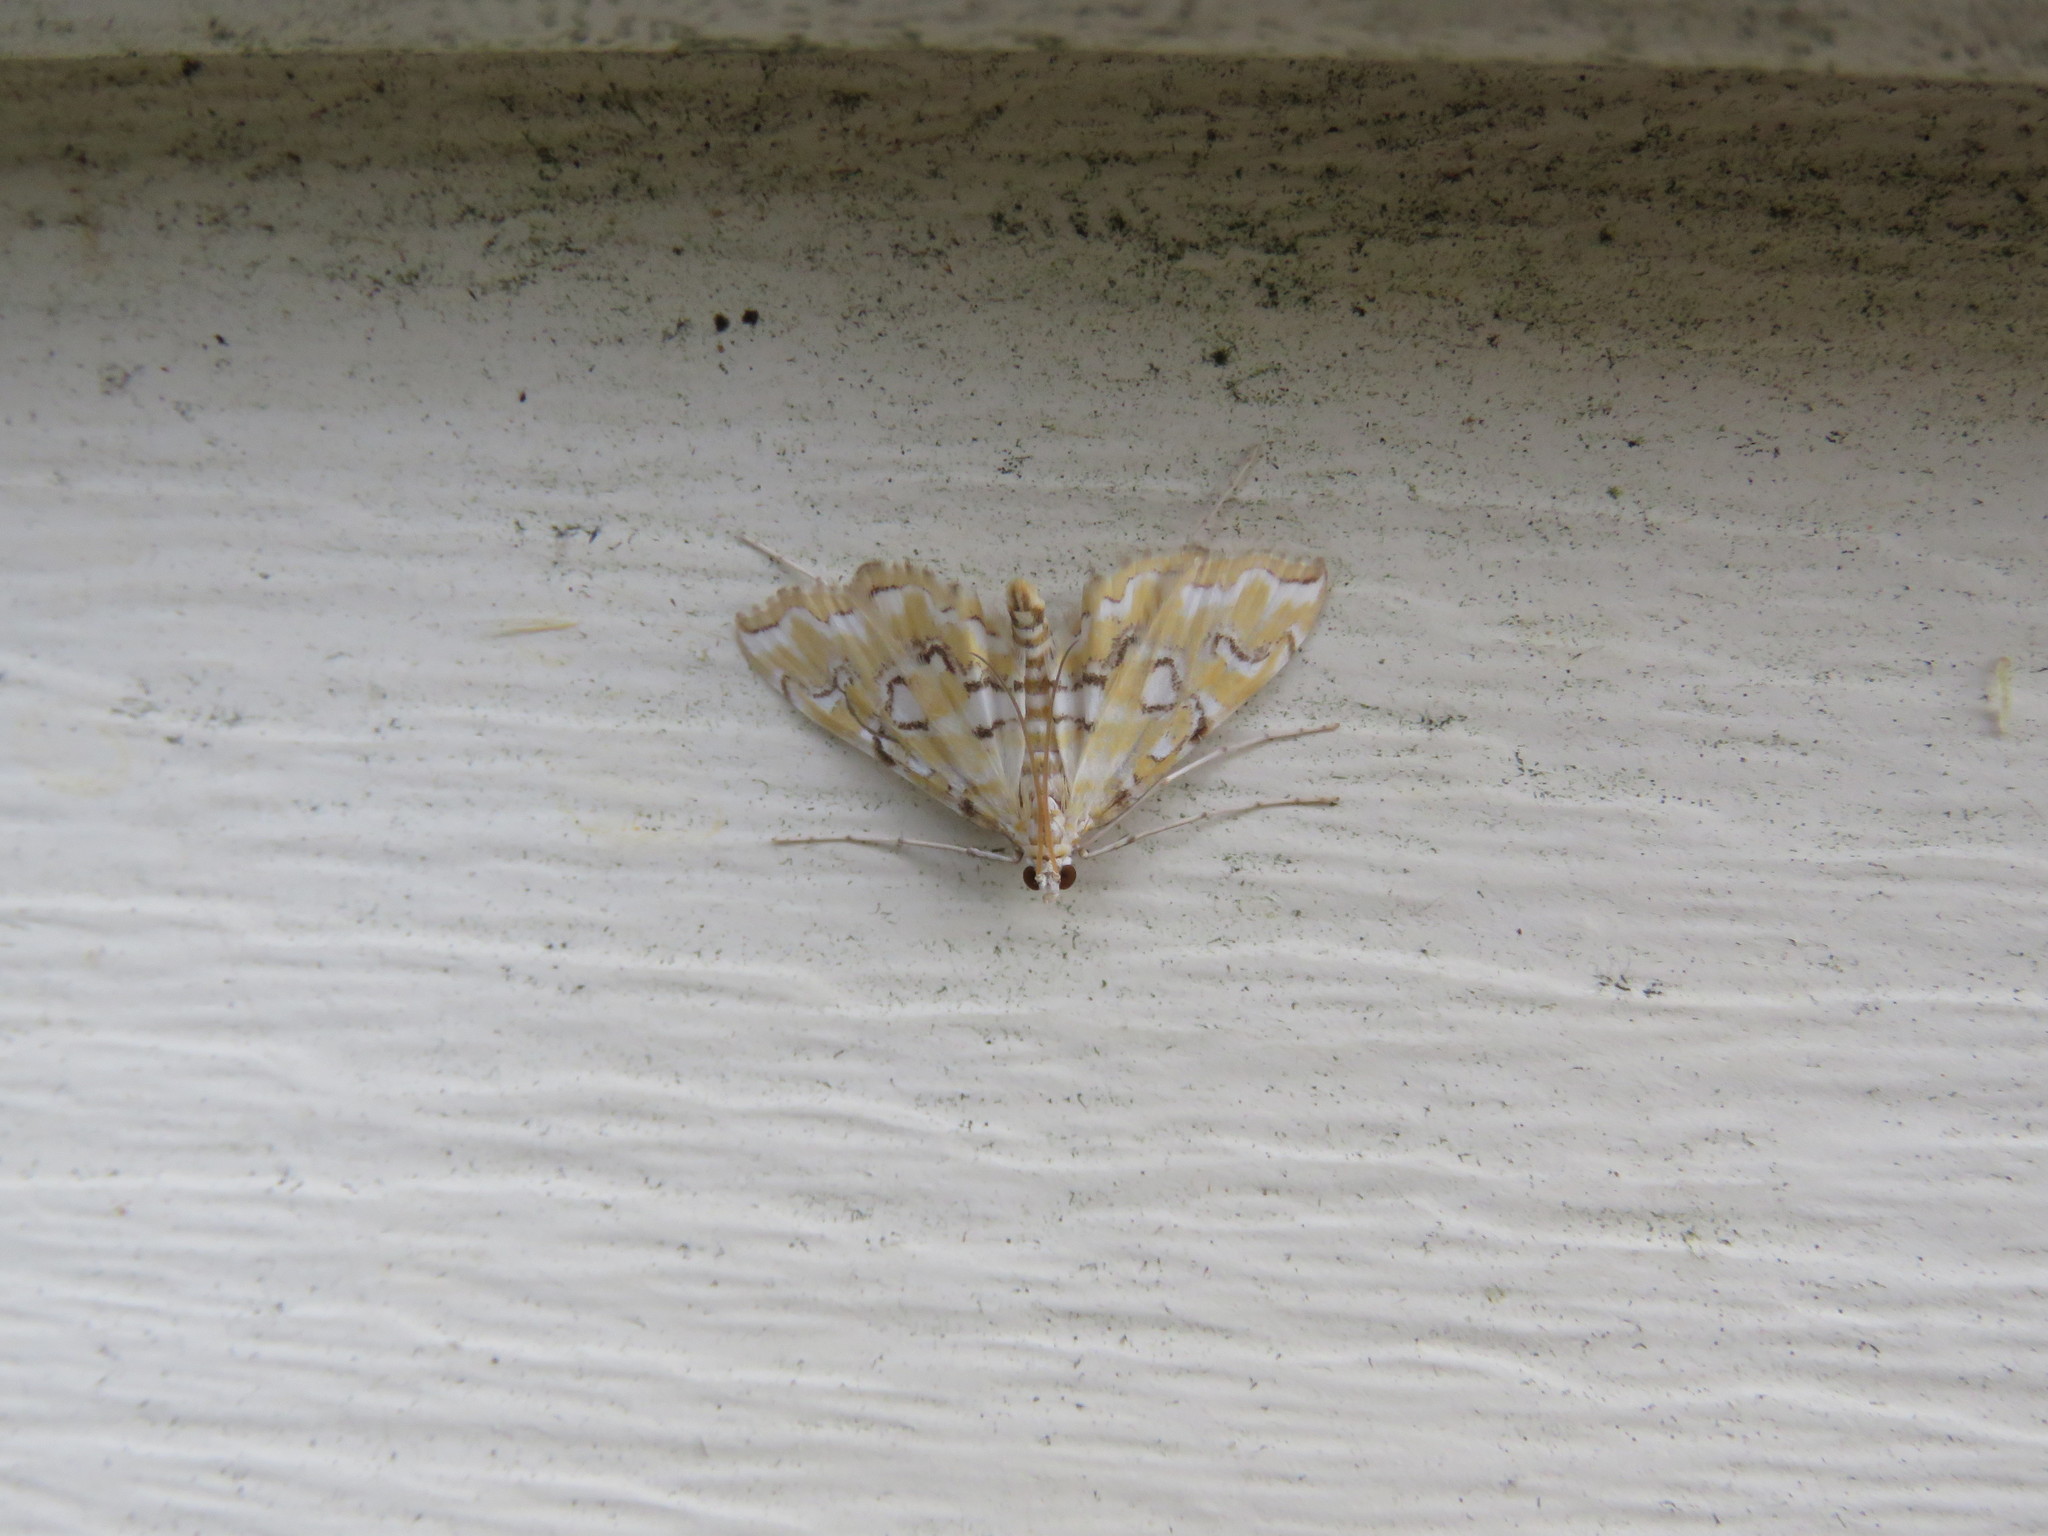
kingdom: Animalia
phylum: Arthropoda
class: Insecta
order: Lepidoptera
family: Crambidae
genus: Elophila
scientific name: Elophila icciusalis
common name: Pondside pyralid moth
